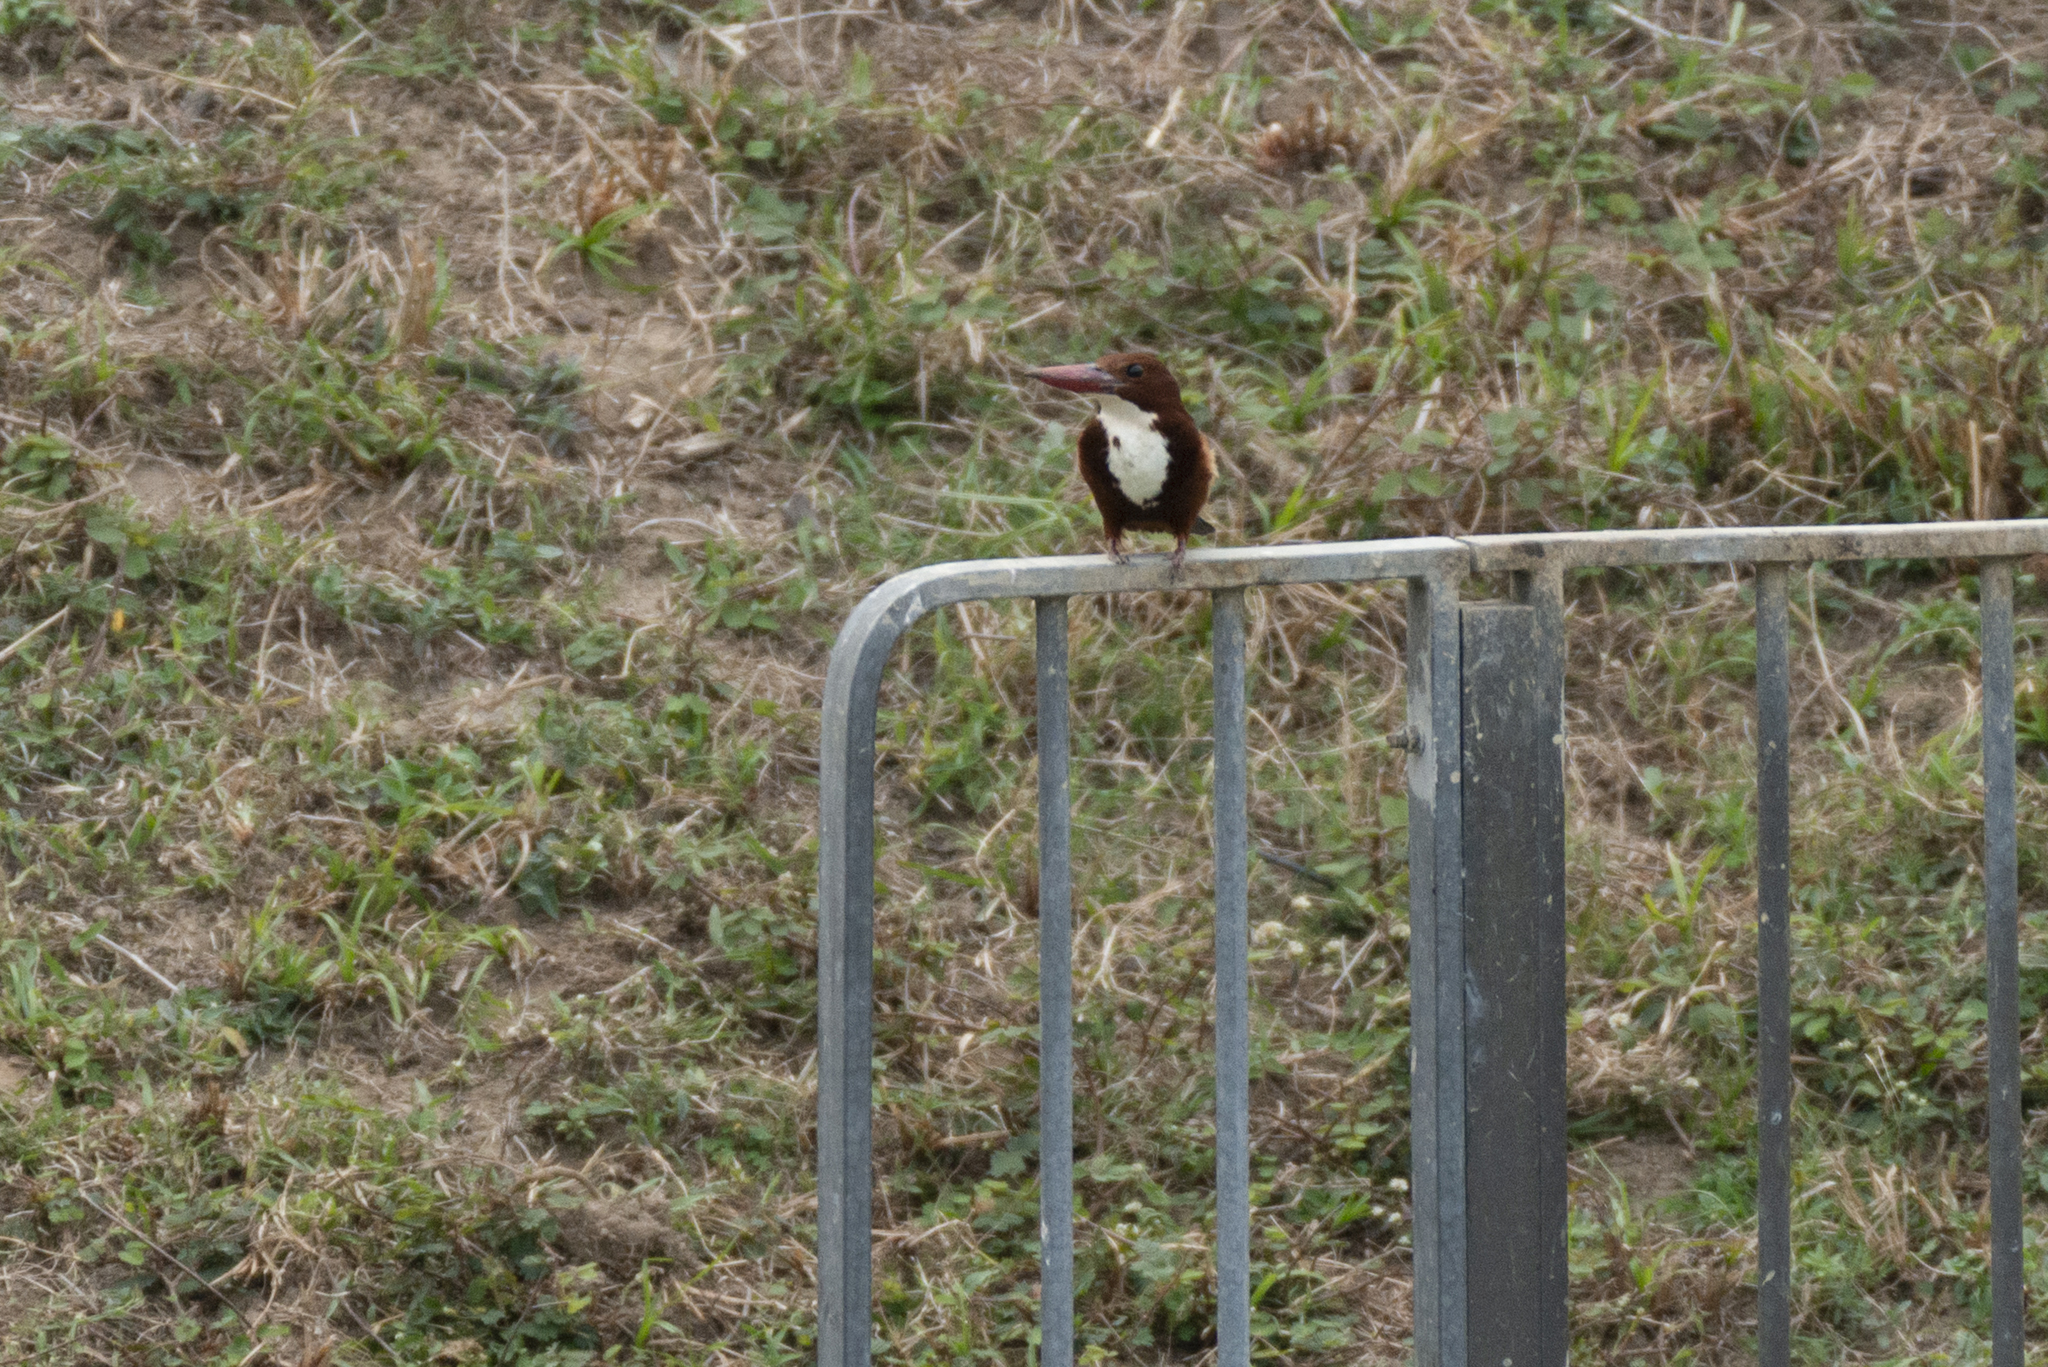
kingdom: Animalia
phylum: Chordata
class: Aves
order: Coraciiformes
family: Alcedinidae
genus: Halcyon
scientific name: Halcyon smyrnensis
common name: White-throated kingfisher
